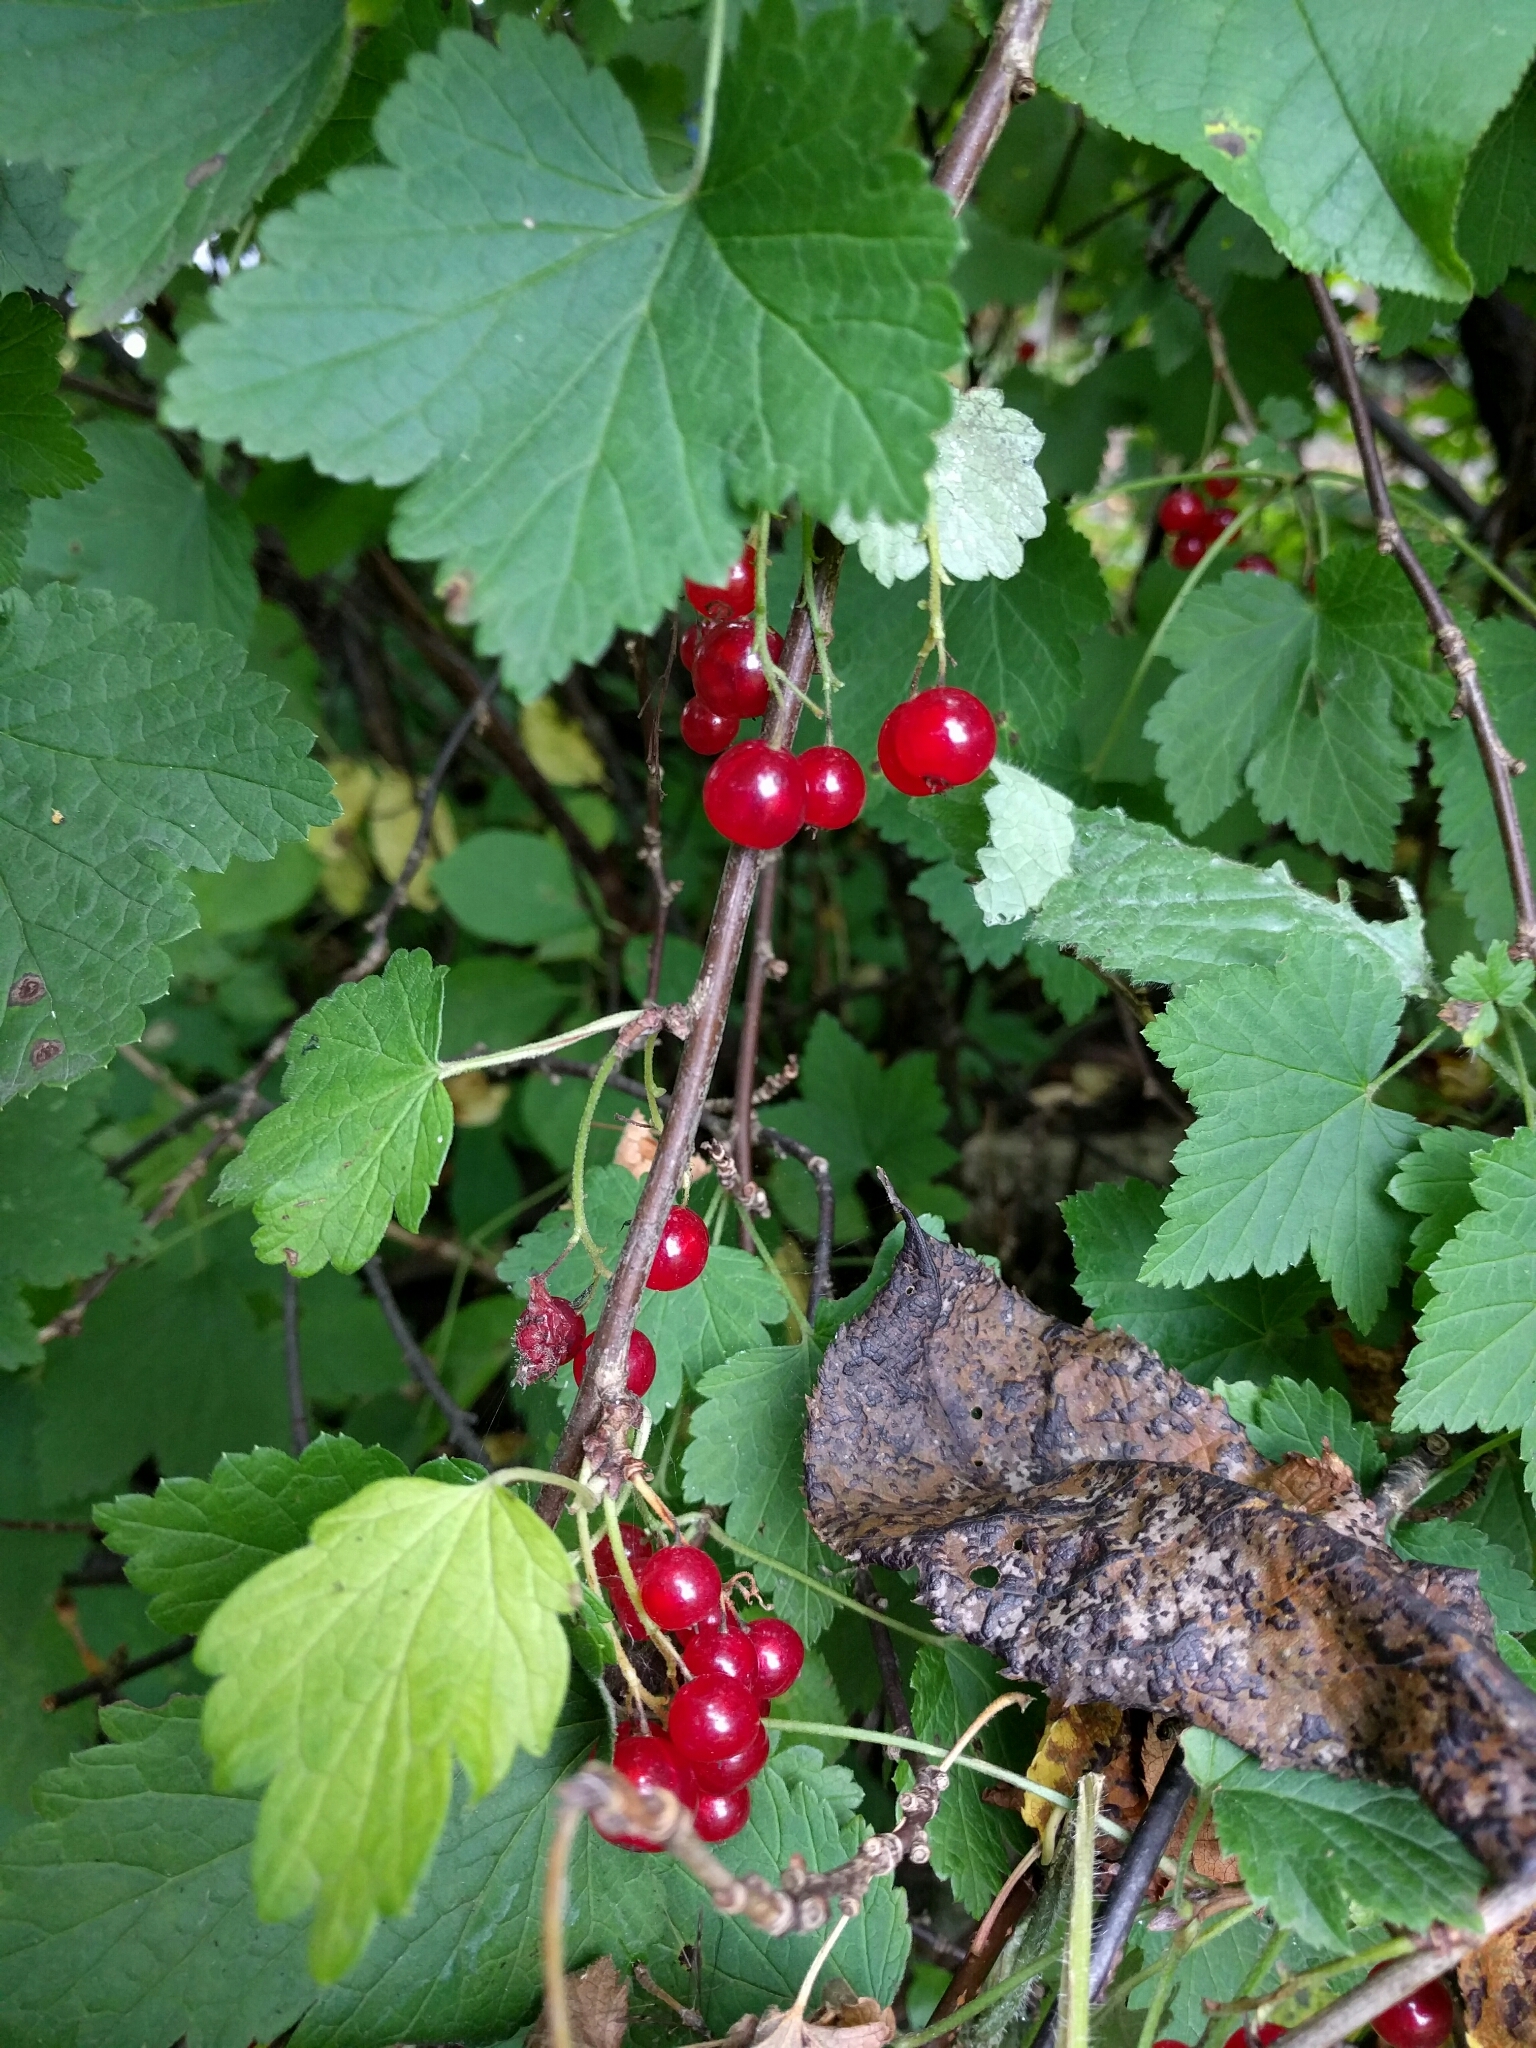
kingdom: Plantae
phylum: Tracheophyta
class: Magnoliopsida
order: Saxifragales
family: Grossulariaceae
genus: Ribes
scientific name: Ribes rubrum
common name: Red currant
